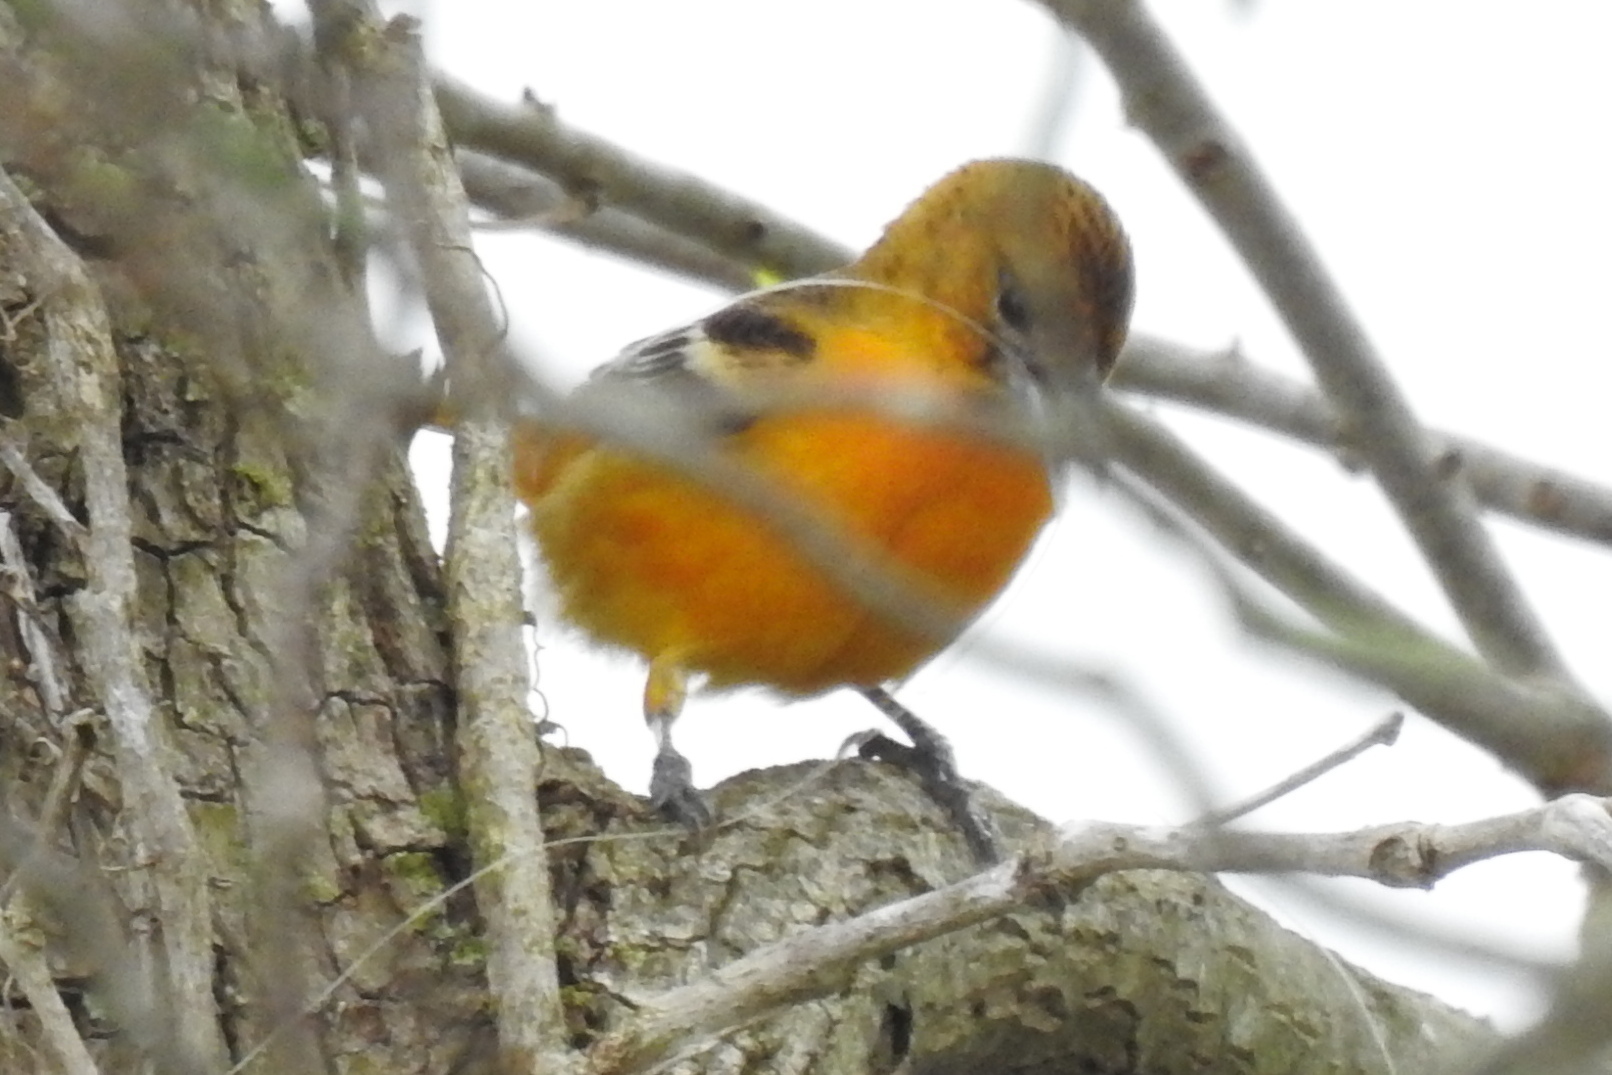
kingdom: Animalia
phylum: Chordata
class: Aves
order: Passeriformes
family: Icteridae
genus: Icterus
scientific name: Icterus galbula
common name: Baltimore oriole
